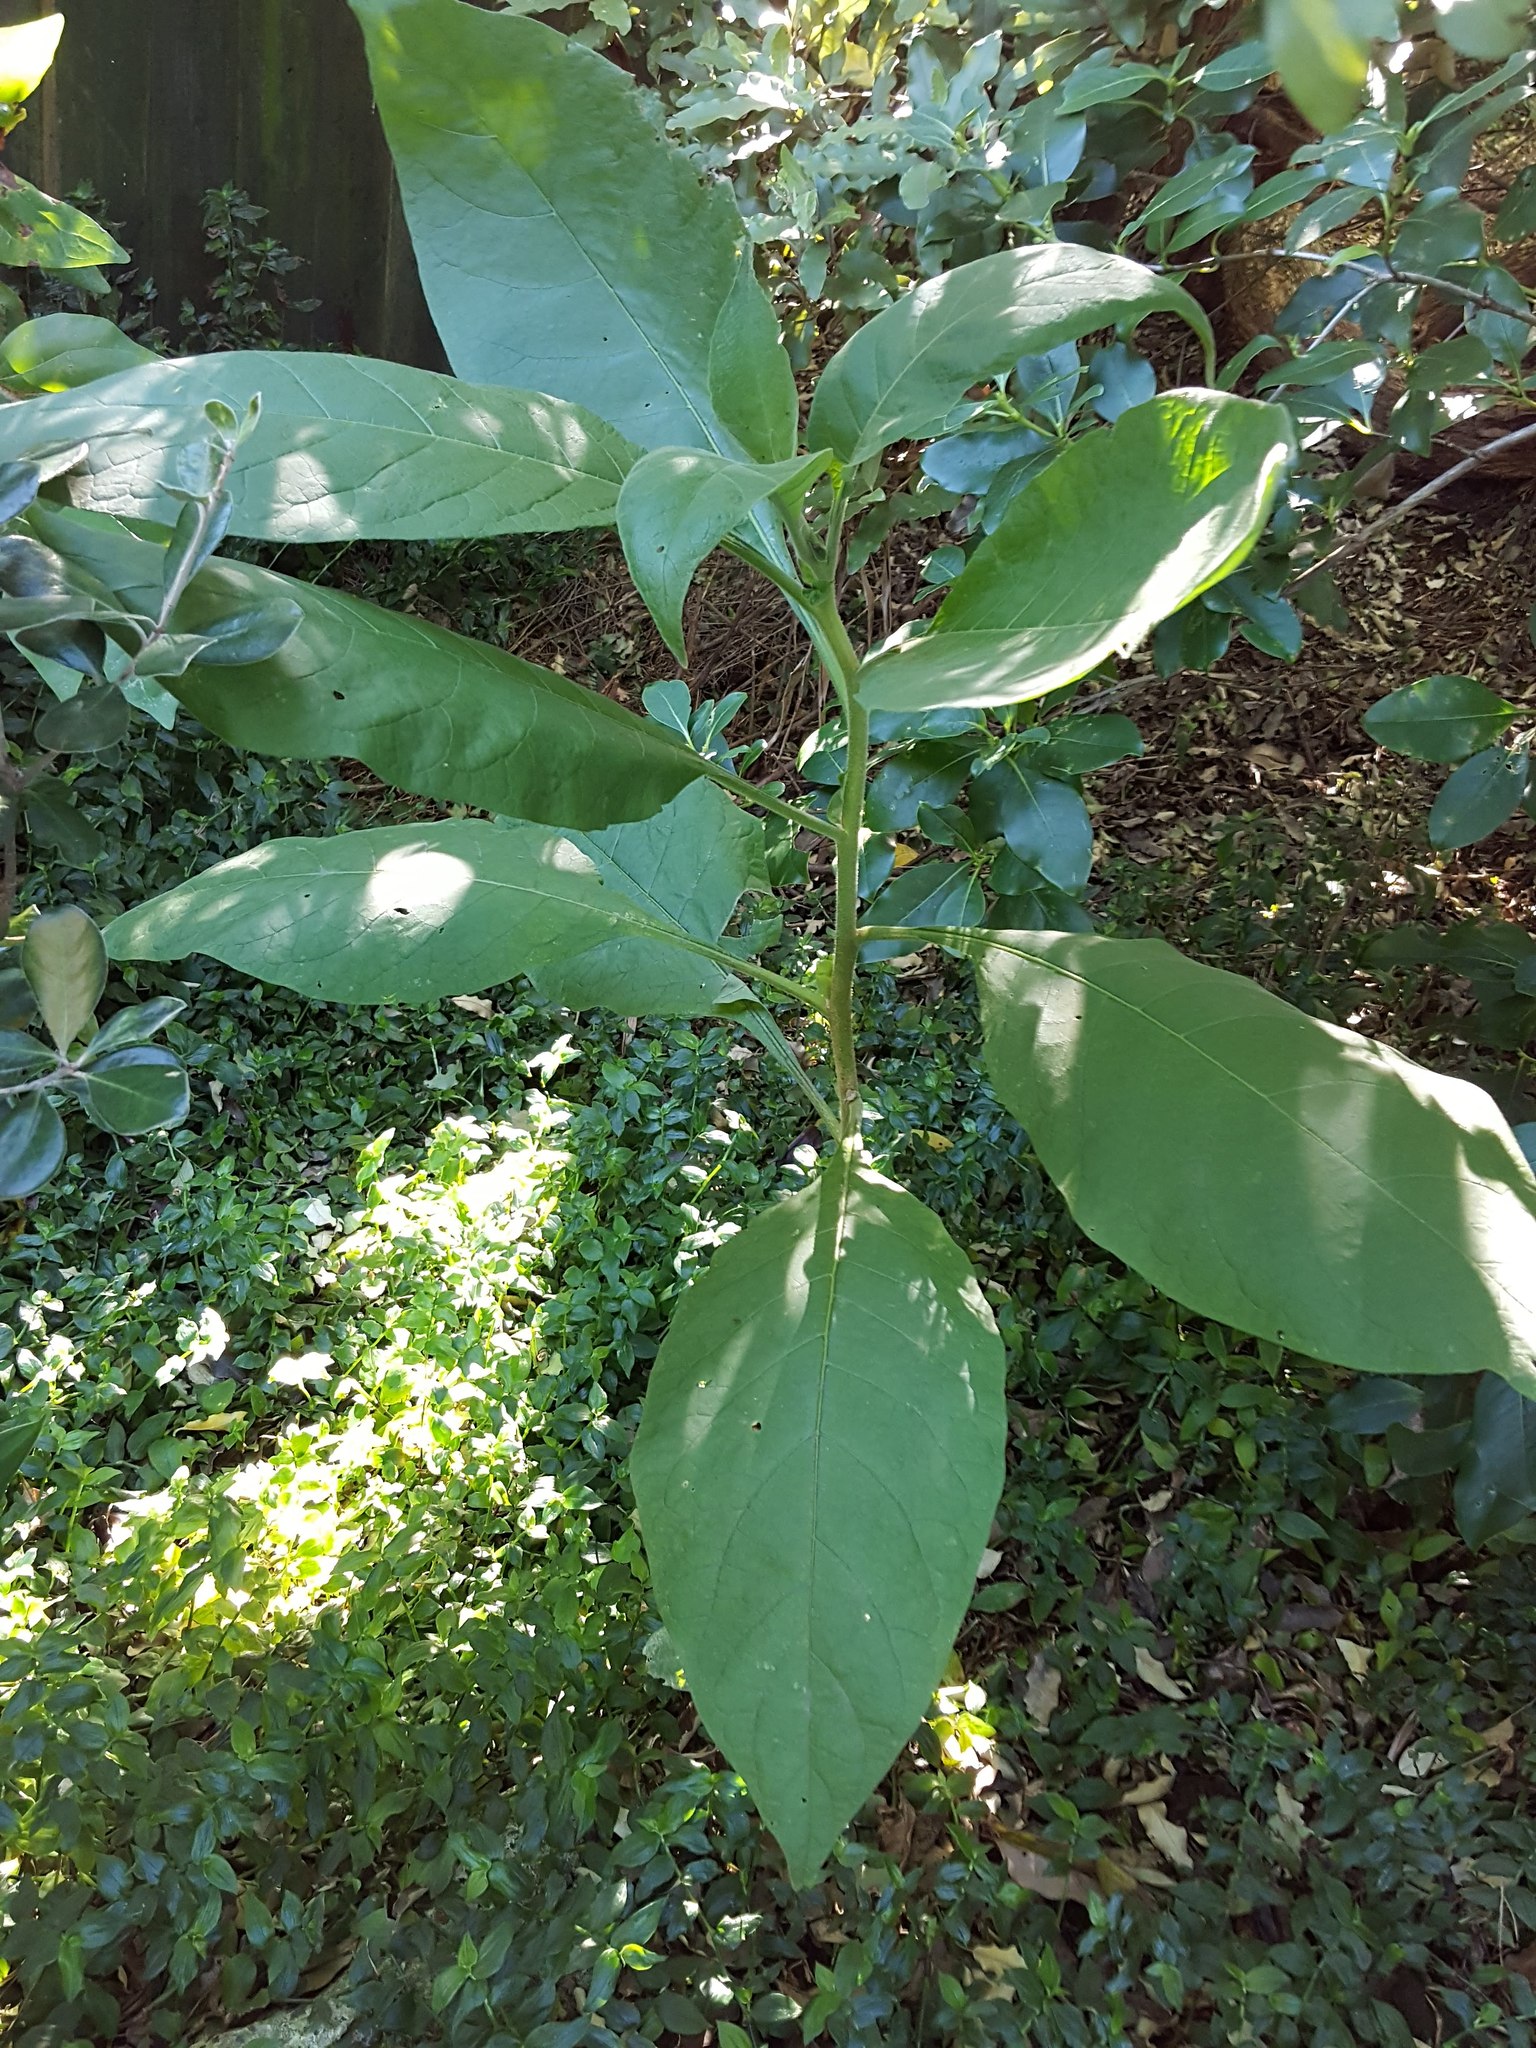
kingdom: Plantae
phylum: Tracheophyta
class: Magnoliopsida
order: Solanales
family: Solanaceae
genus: Solanum
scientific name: Solanum mauritianum
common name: Earleaf nightshade
